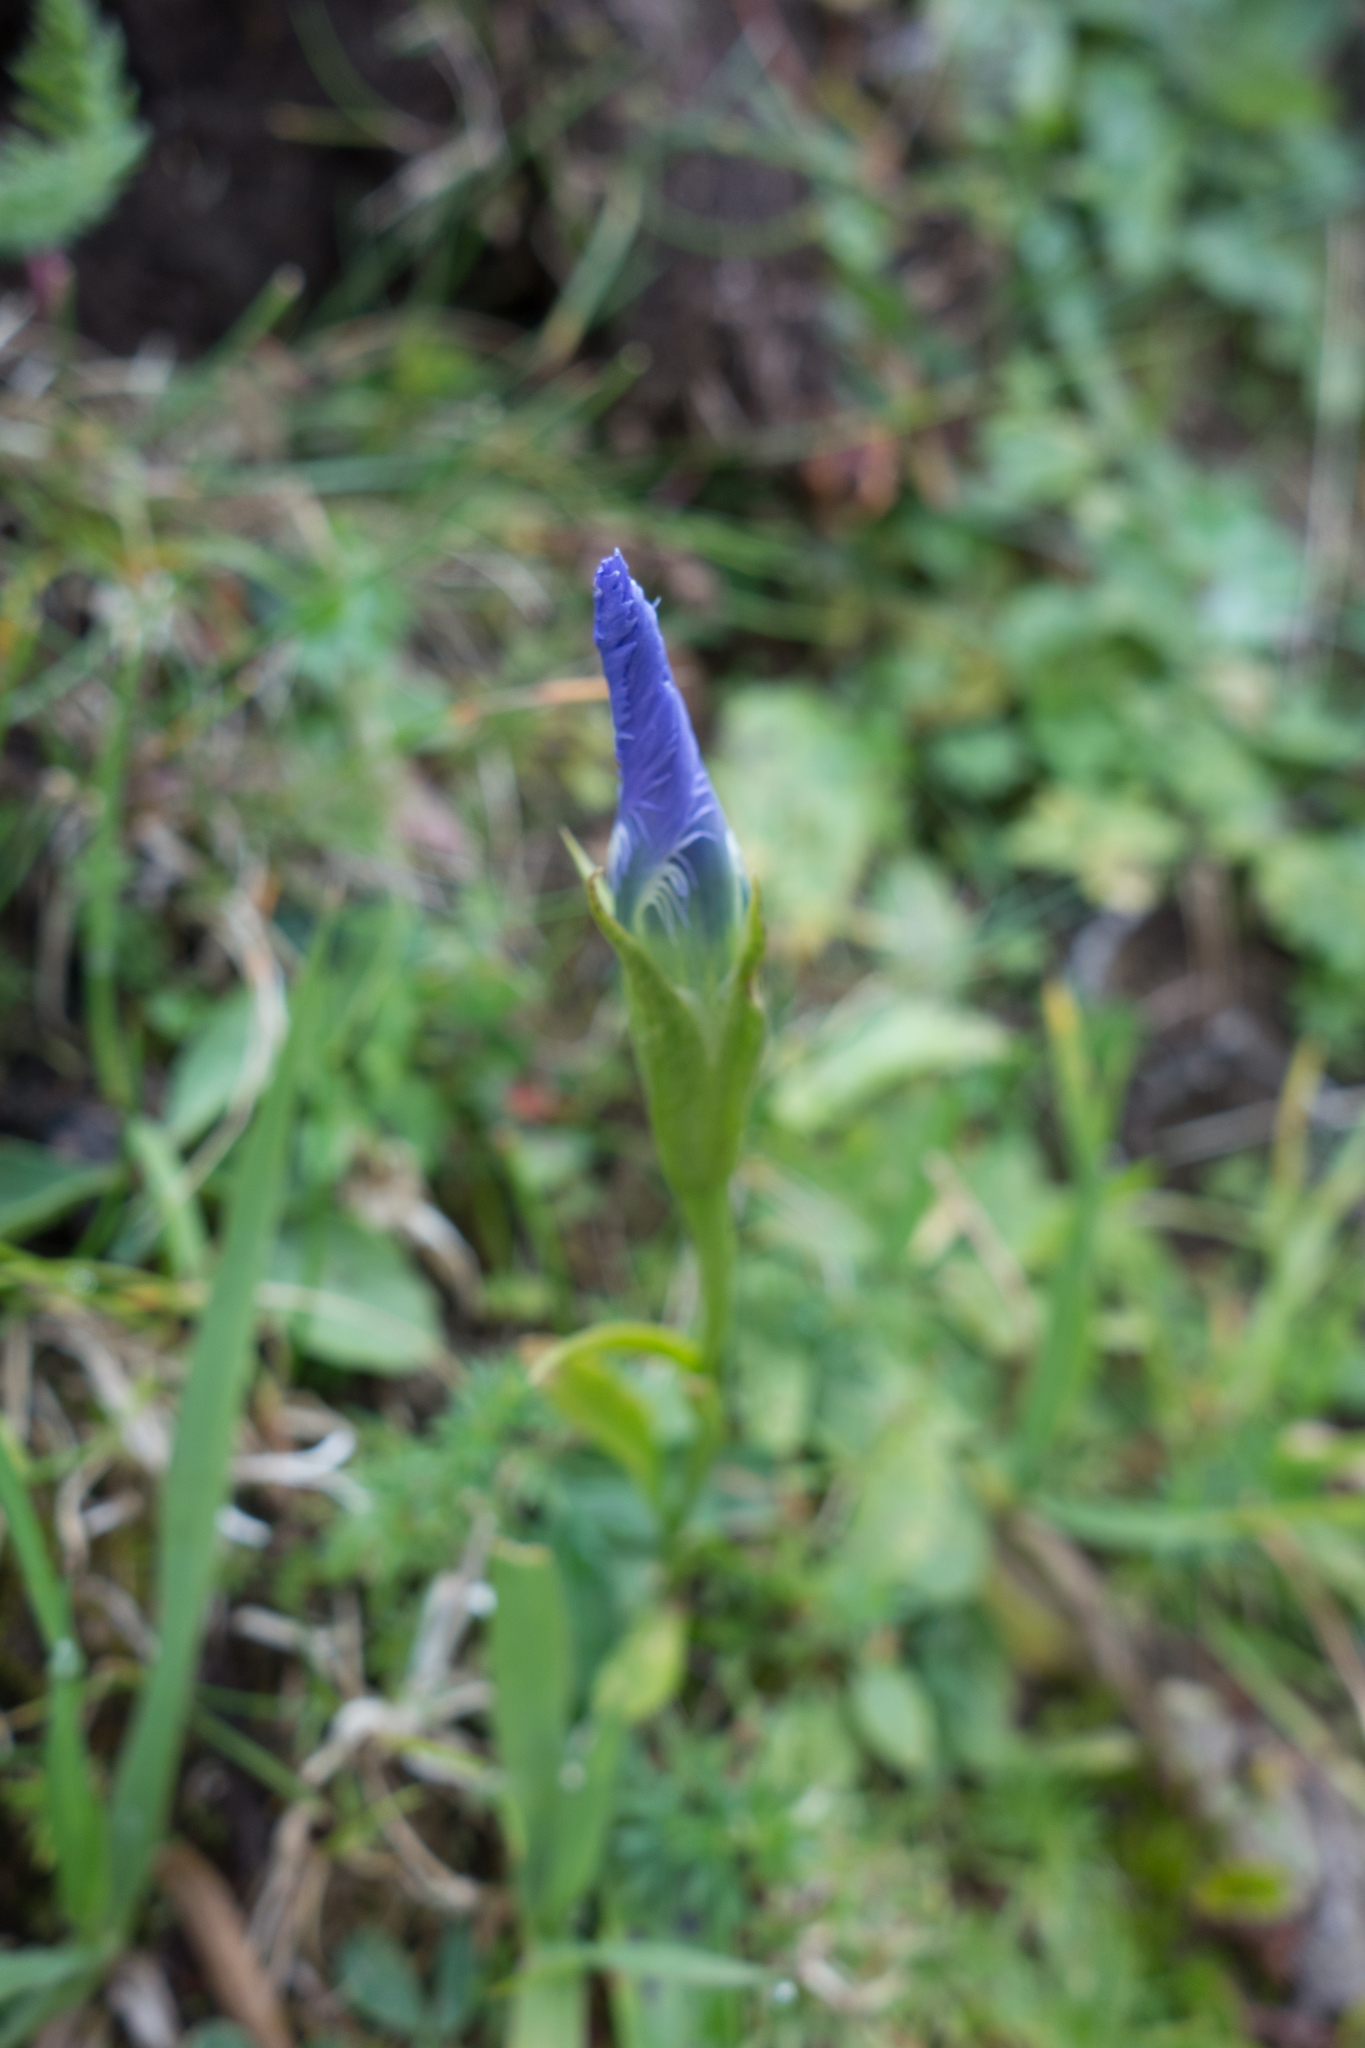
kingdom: Plantae
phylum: Tracheophyta
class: Magnoliopsida
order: Gentianales
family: Gentianaceae
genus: Gentianopsis
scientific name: Gentianopsis ciliata
